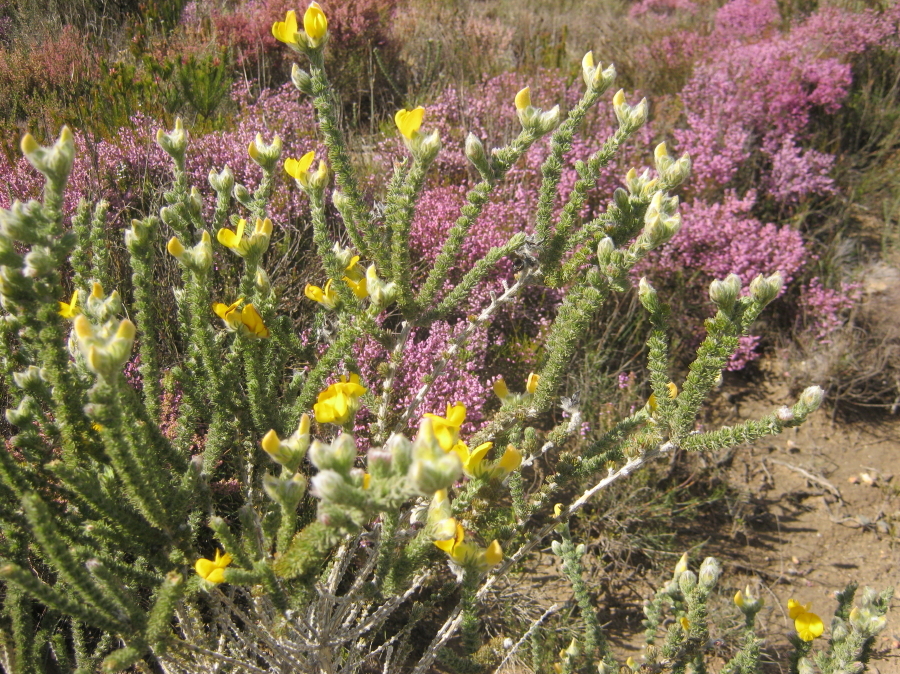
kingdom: Plantae
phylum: Tracheophyta
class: Magnoliopsida
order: Fabales
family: Fabaceae
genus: Aspalathus
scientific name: Aspalathus grandiflora
